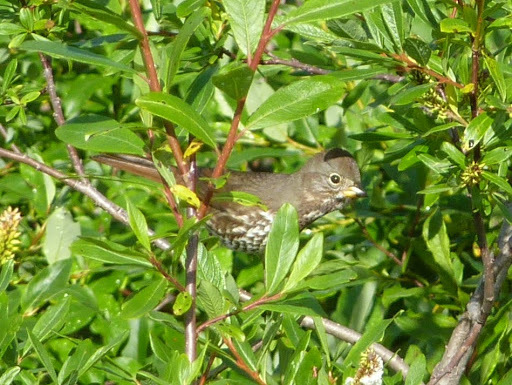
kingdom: Animalia
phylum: Chordata
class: Aves
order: Passeriformes
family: Passerellidae
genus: Passerella
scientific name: Passerella iliaca
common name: Fox sparrow
